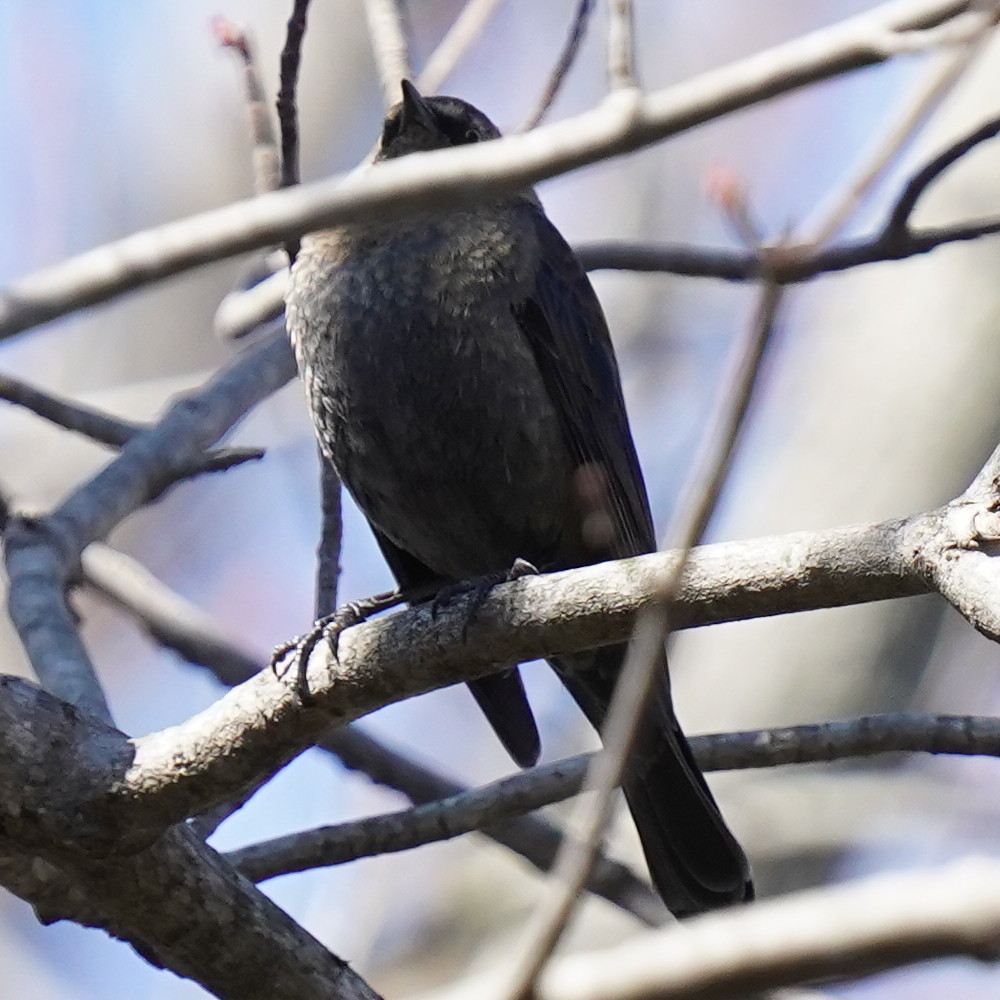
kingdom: Animalia
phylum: Chordata
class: Aves
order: Passeriformes
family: Icteridae
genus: Euphagus
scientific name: Euphagus carolinus
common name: Rusty blackbird
